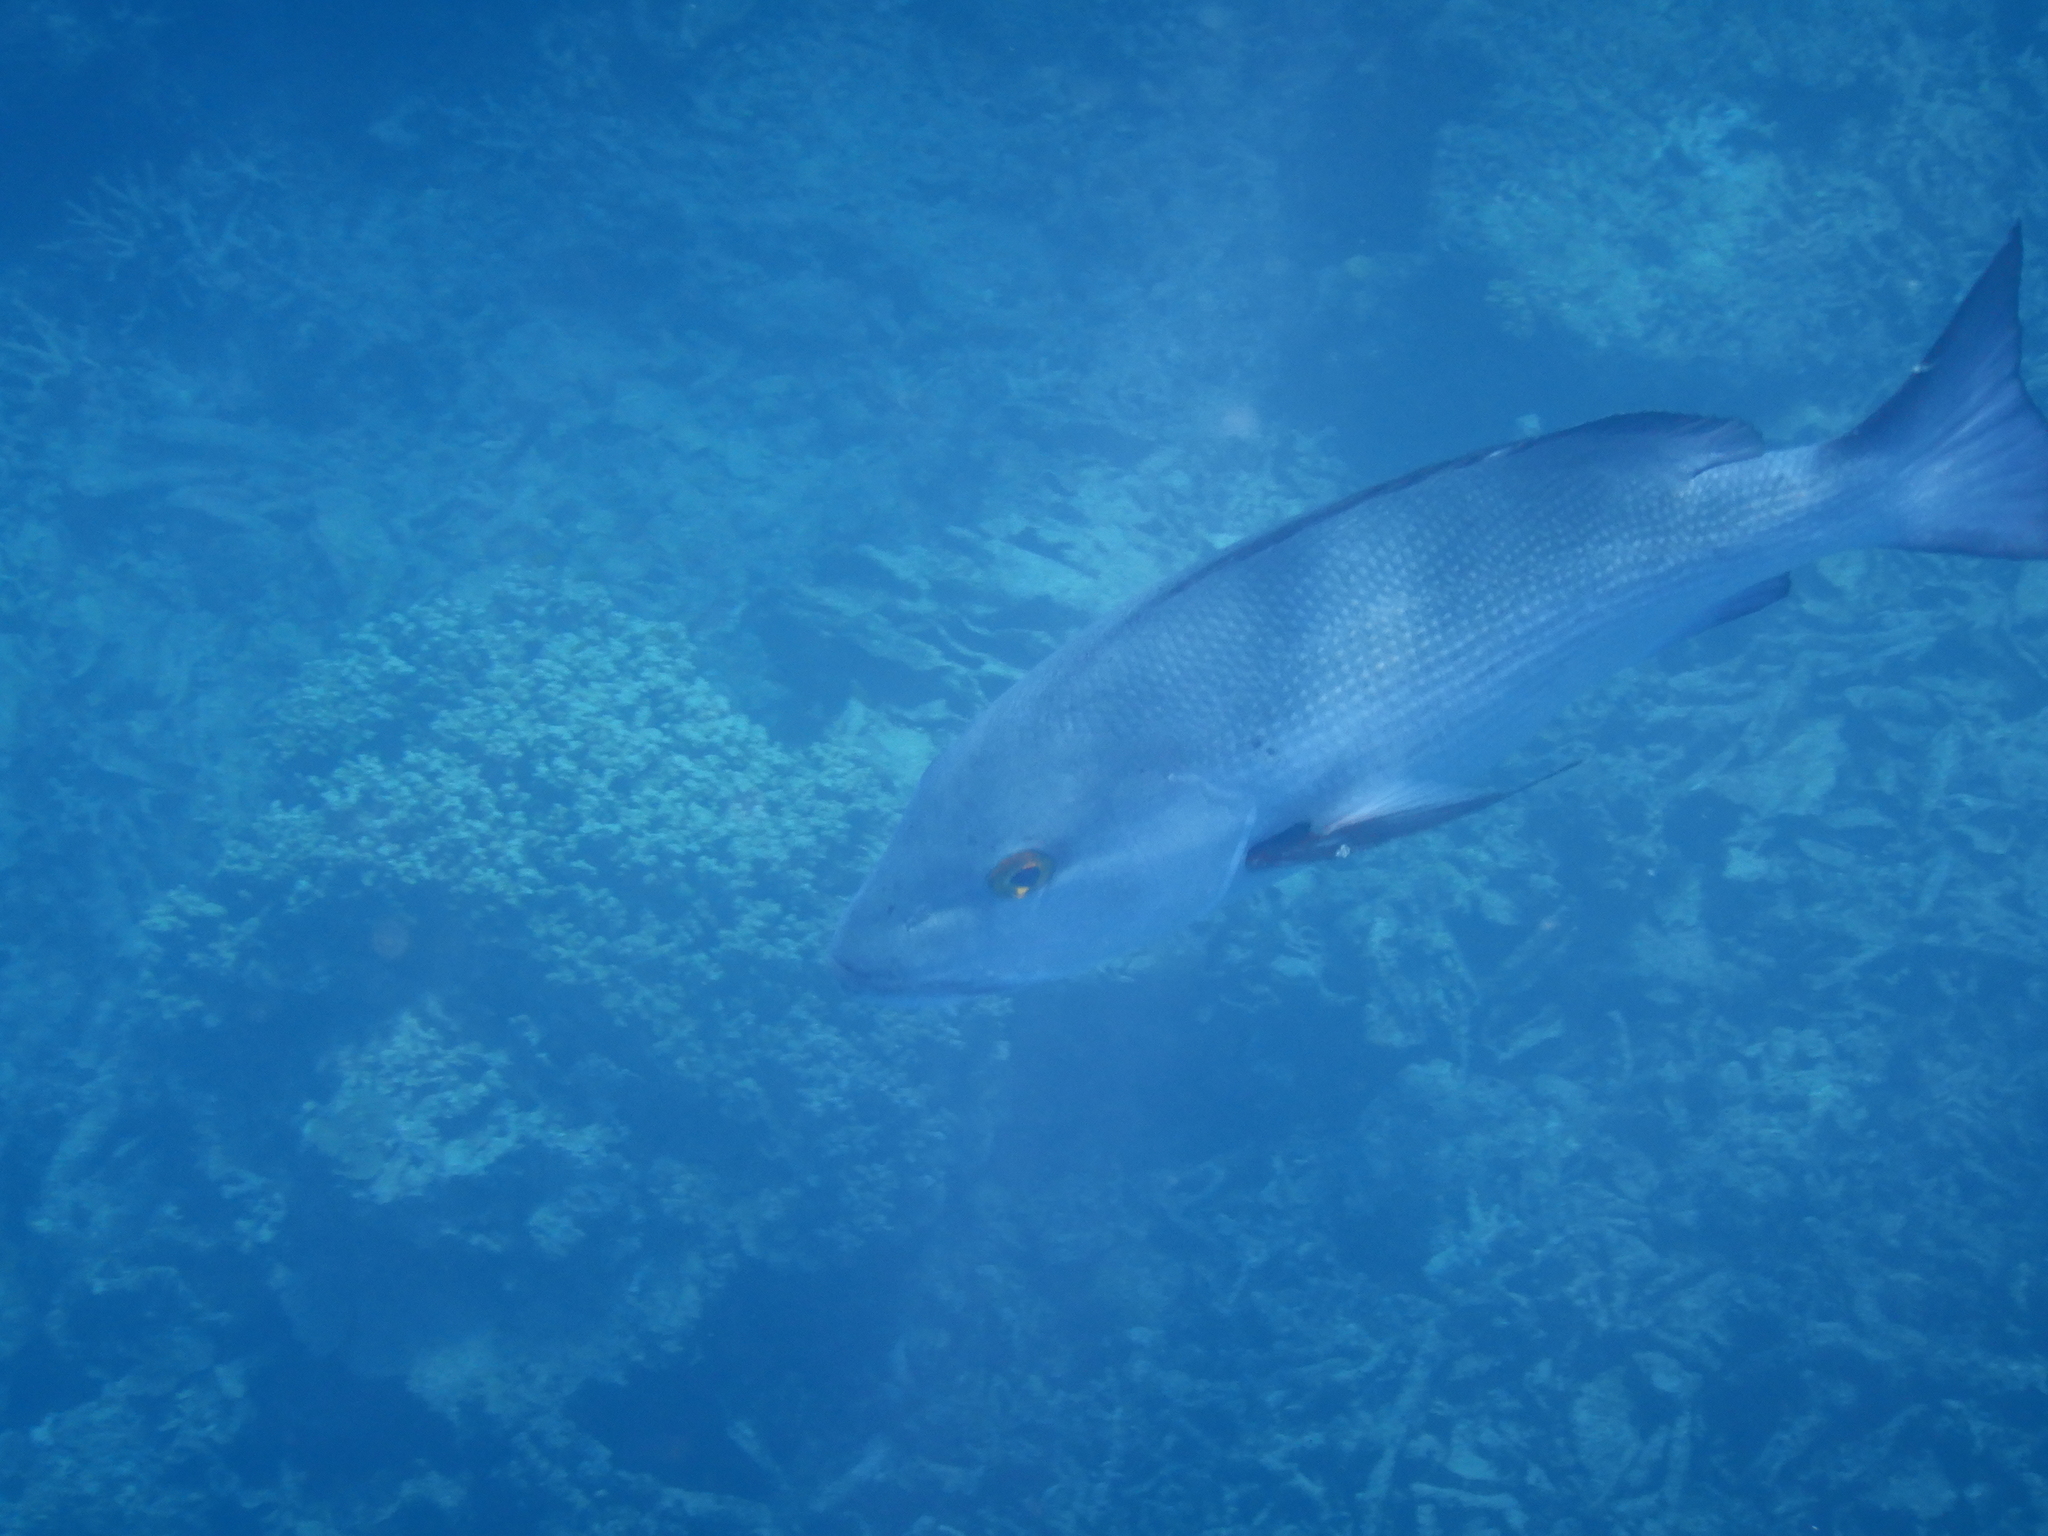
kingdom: Animalia
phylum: Chordata
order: Perciformes
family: Lutjanidae
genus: Lutjanus
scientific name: Lutjanus bohar
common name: Red bass
